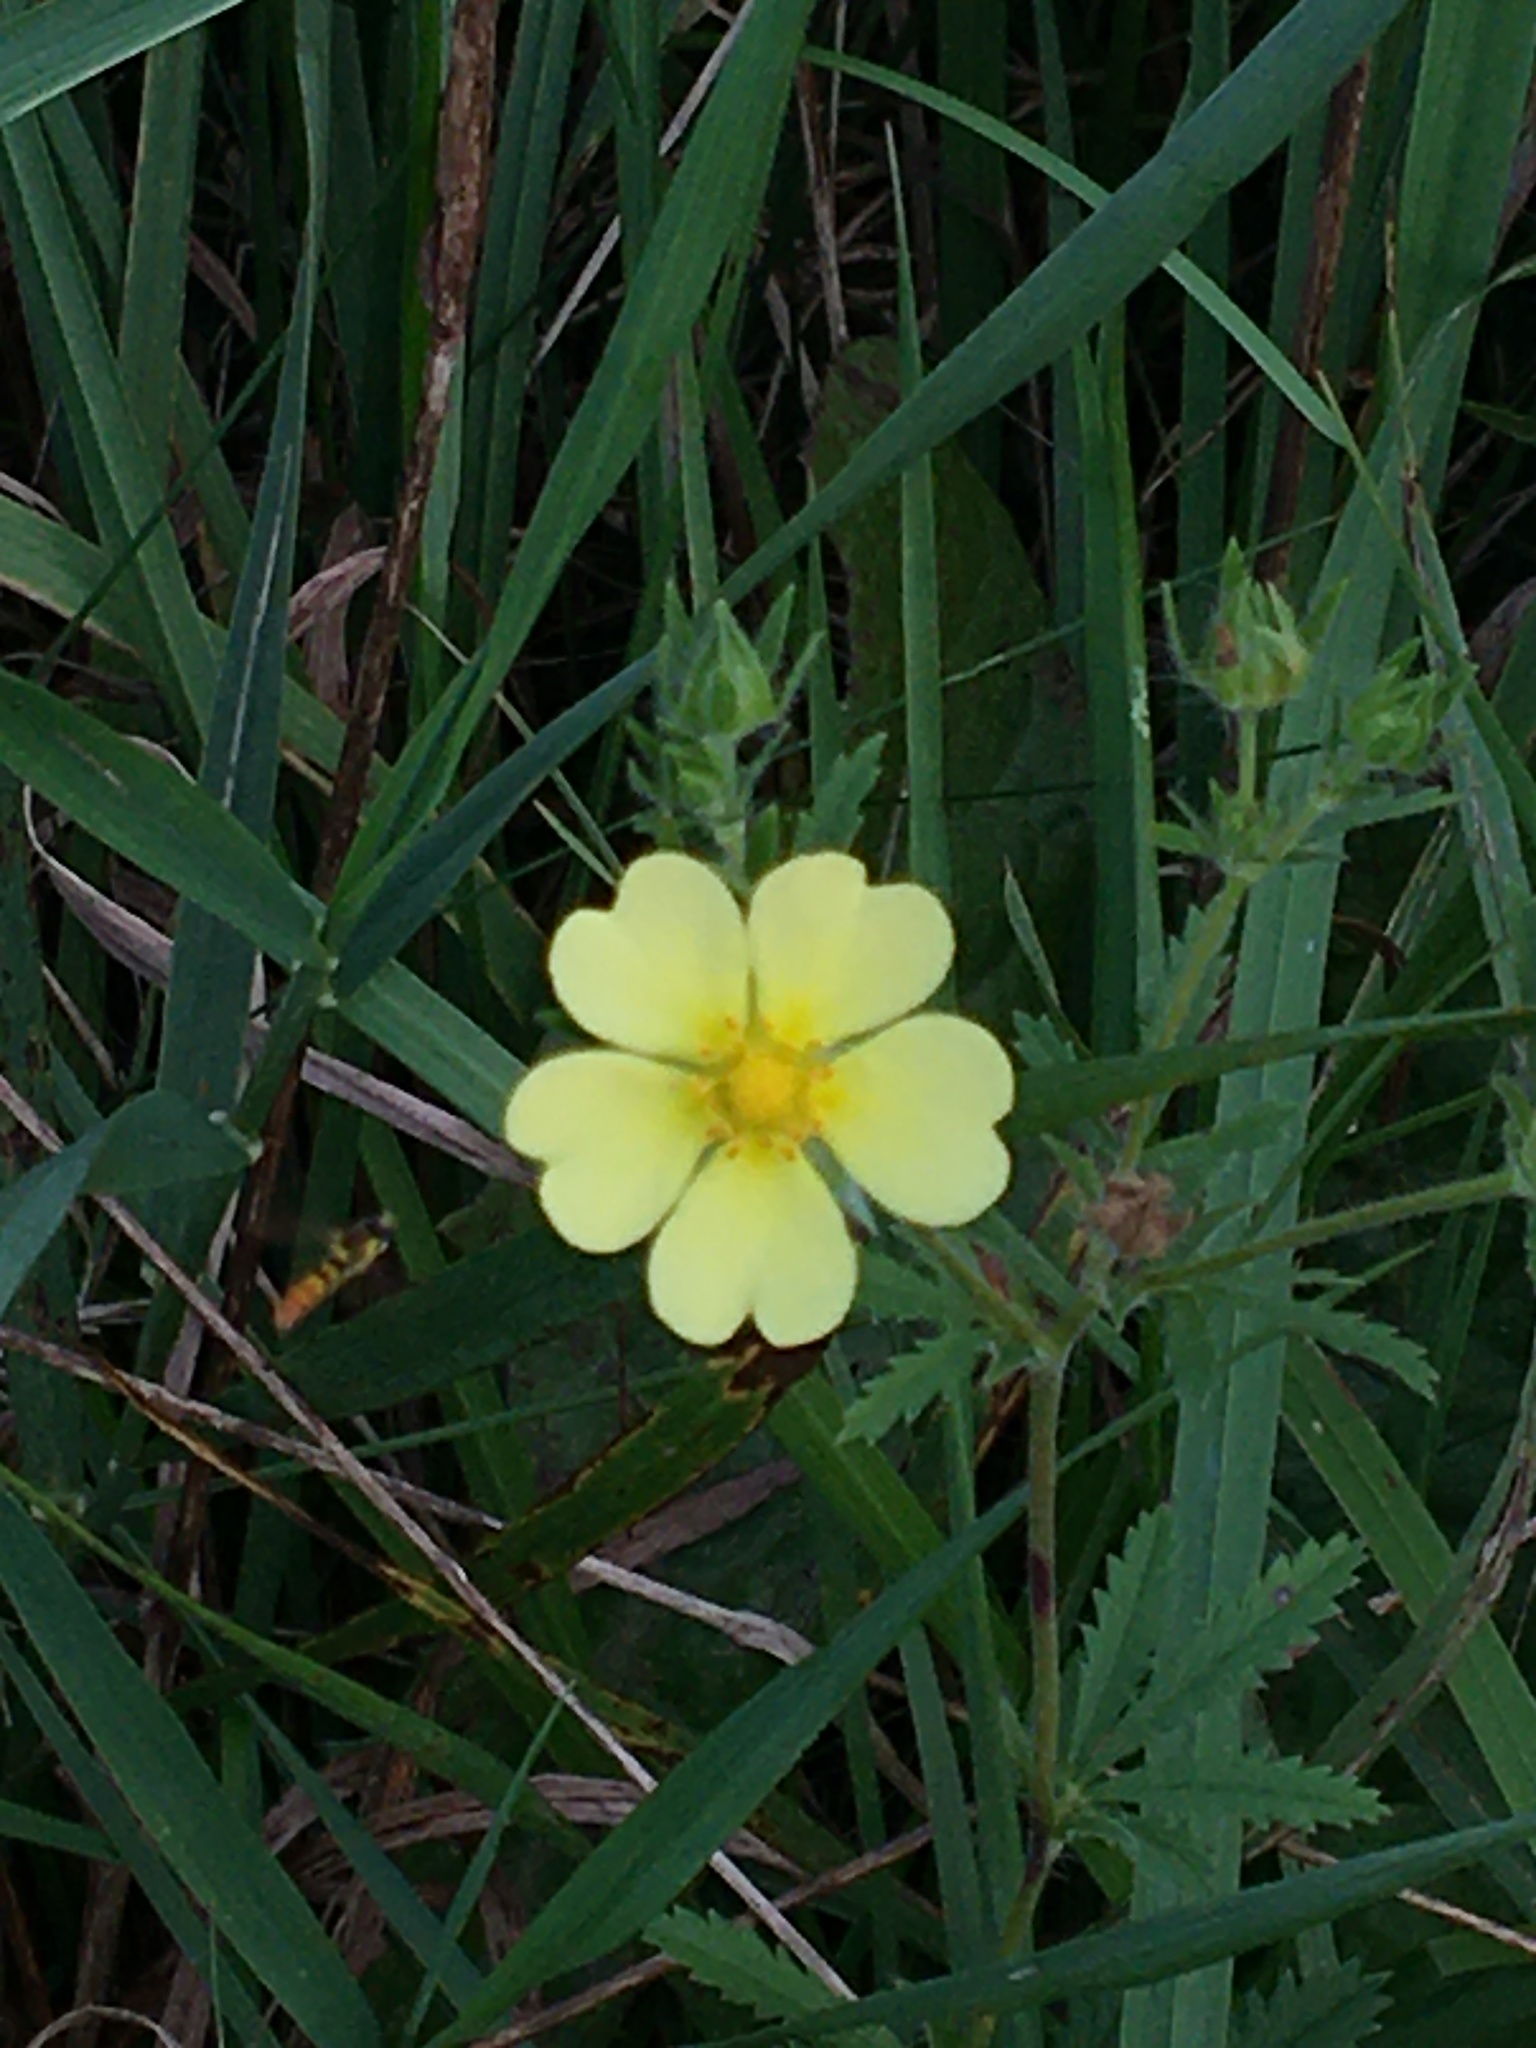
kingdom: Plantae
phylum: Tracheophyta
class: Magnoliopsida
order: Rosales
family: Rosaceae
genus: Potentilla
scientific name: Potentilla recta
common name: Sulphur cinquefoil
